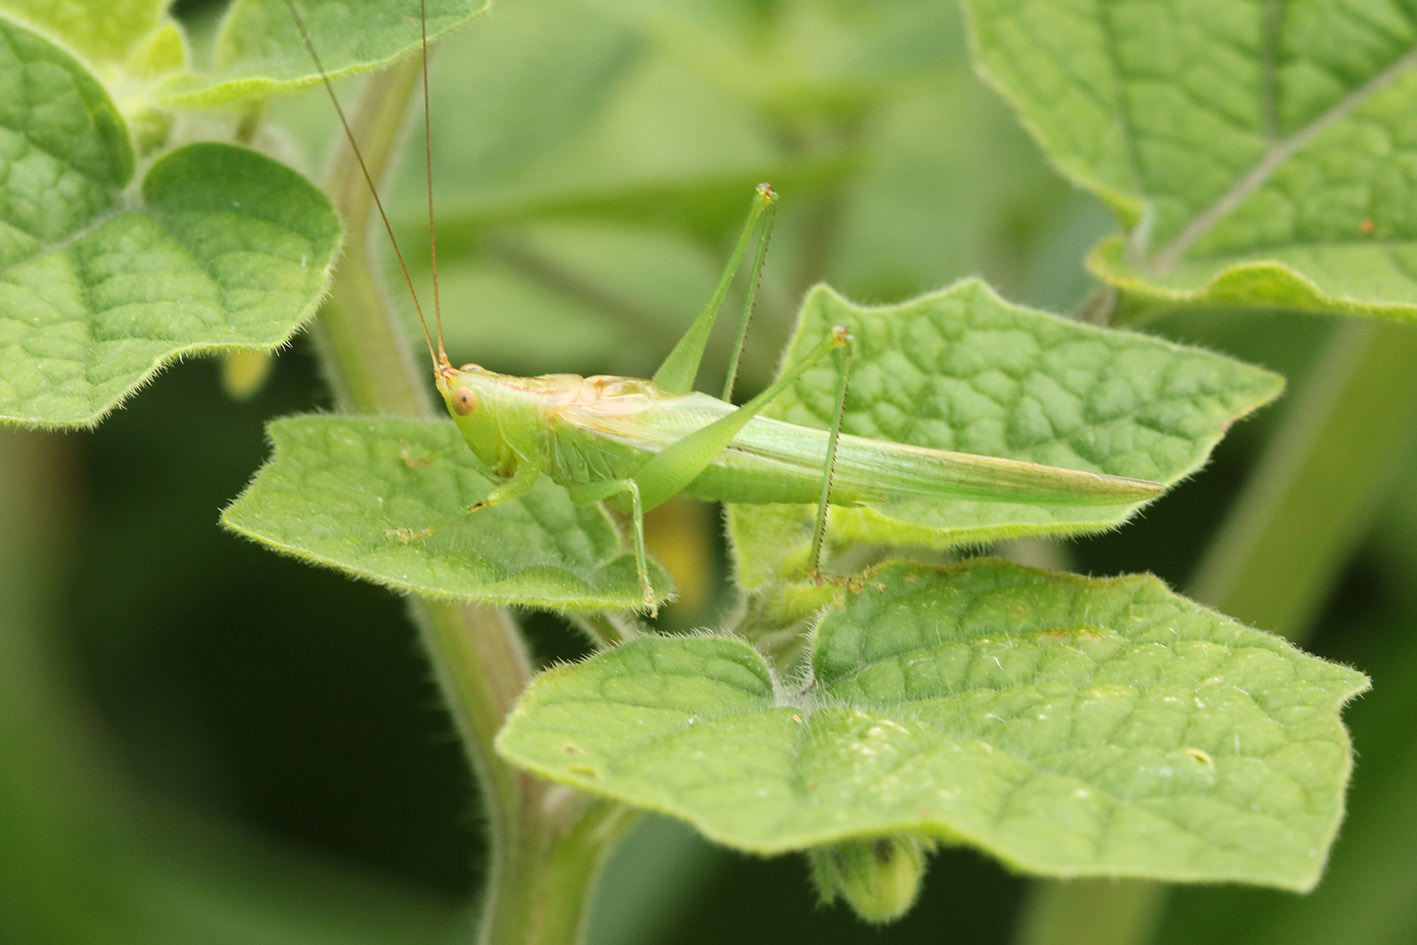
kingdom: Animalia
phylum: Arthropoda
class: Insecta
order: Orthoptera
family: Tettigoniidae
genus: Conocephalus
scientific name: Conocephalus longipes
